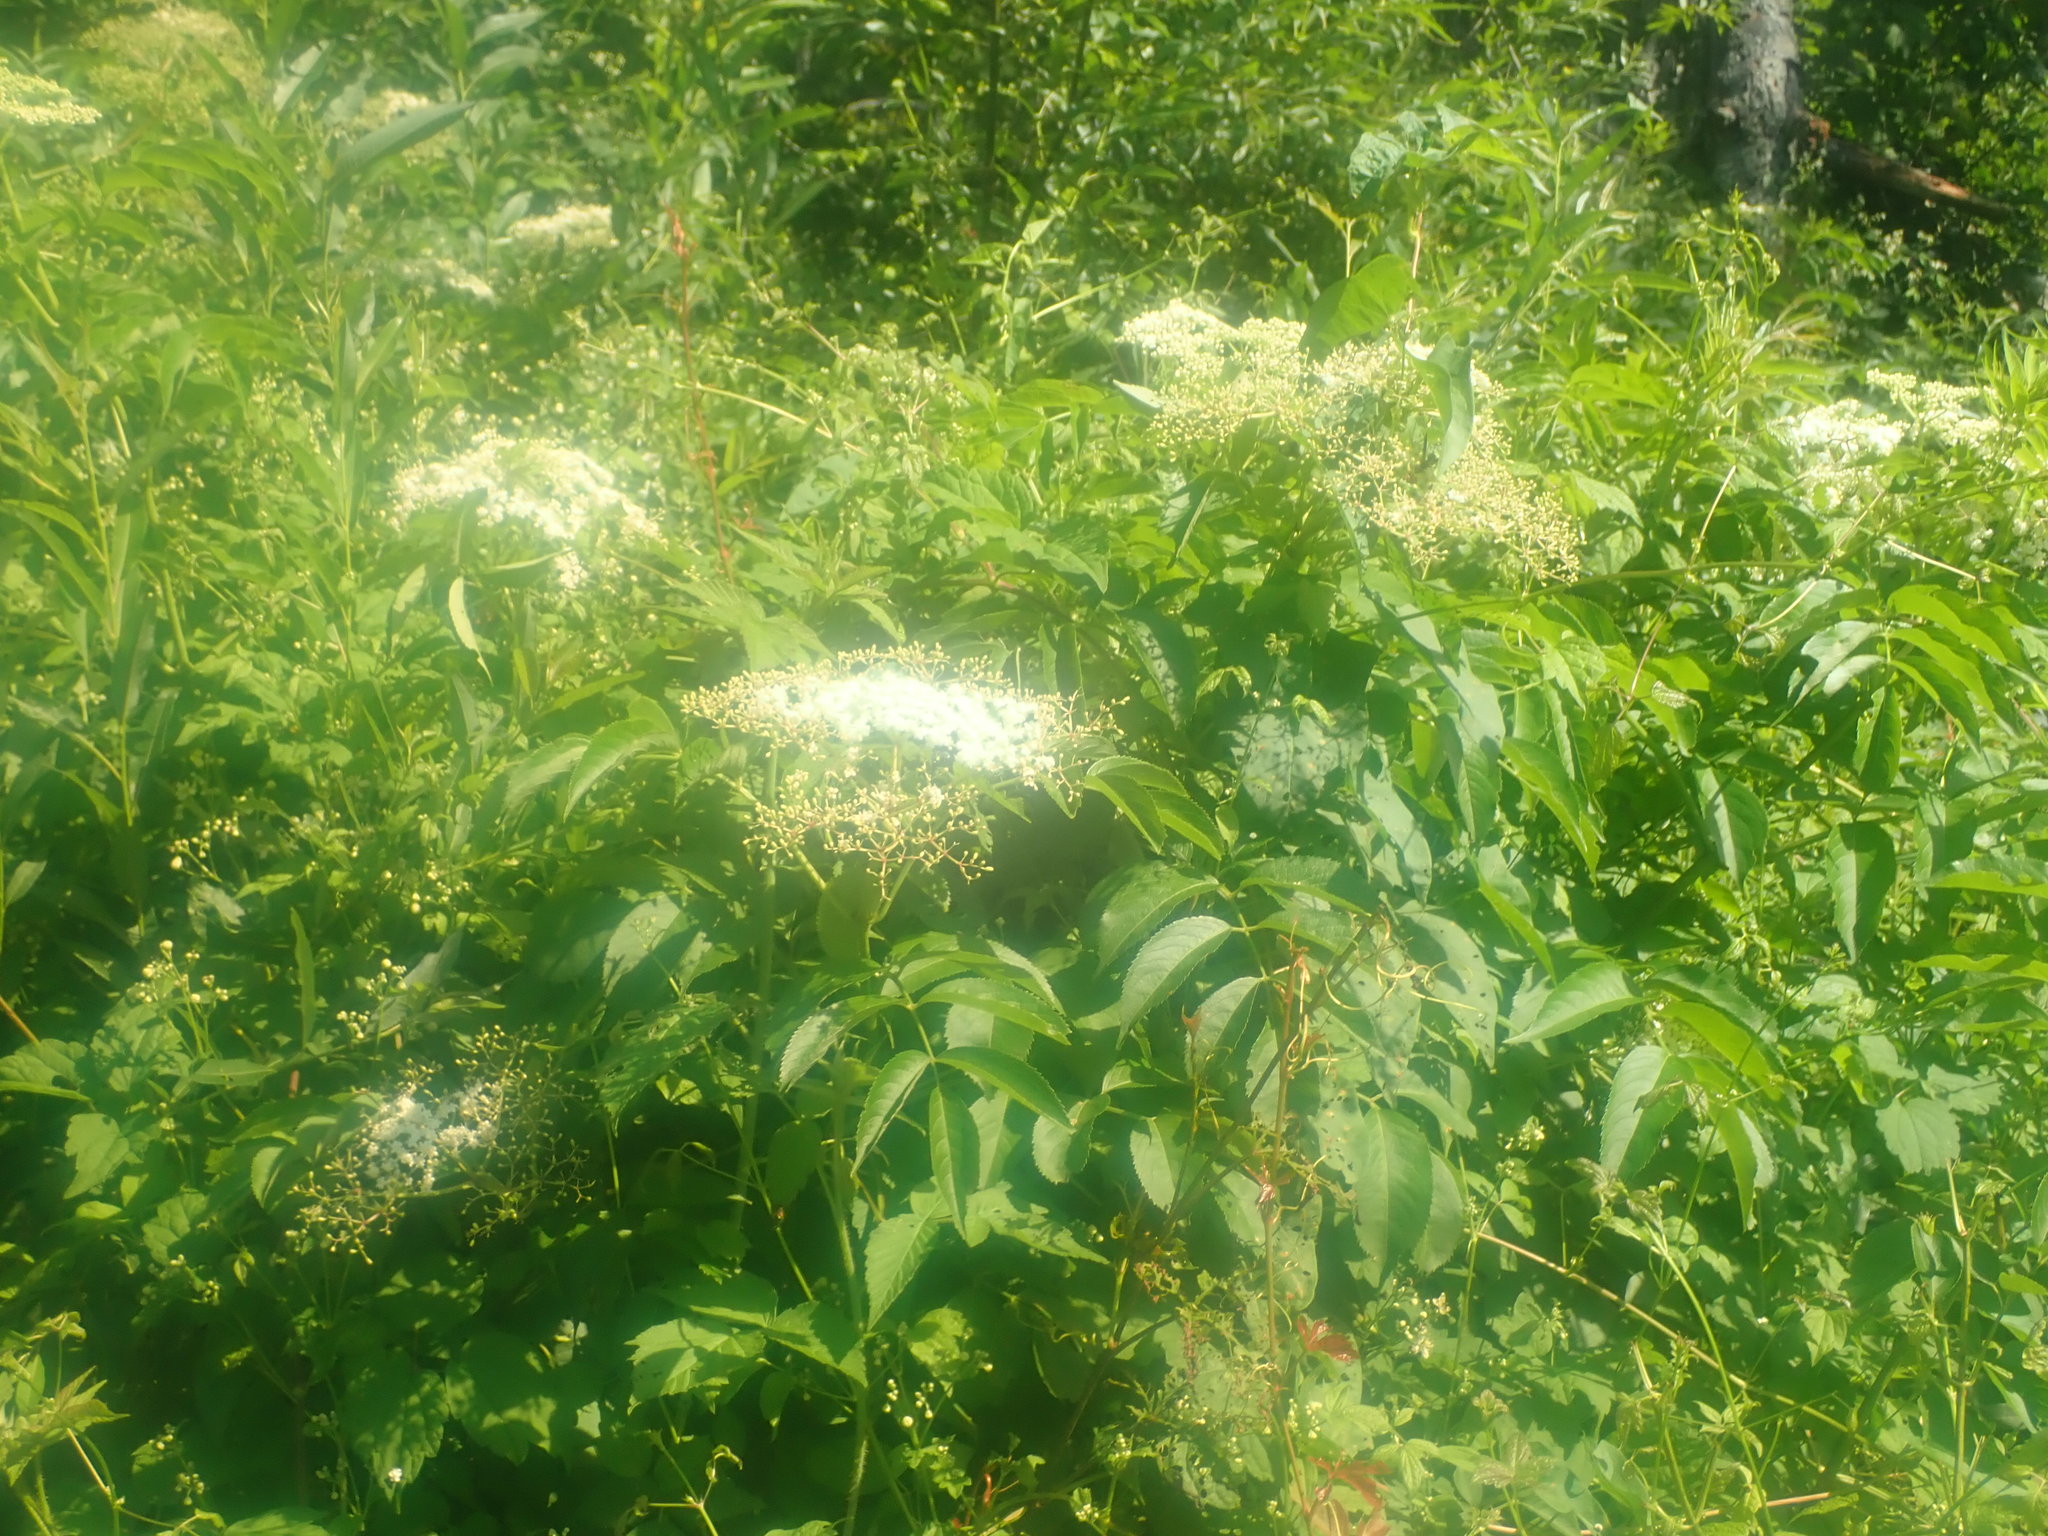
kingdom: Plantae
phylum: Tracheophyta
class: Magnoliopsida
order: Dipsacales
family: Viburnaceae
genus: Sambucus
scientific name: Sambucus canadensis
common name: American elder
